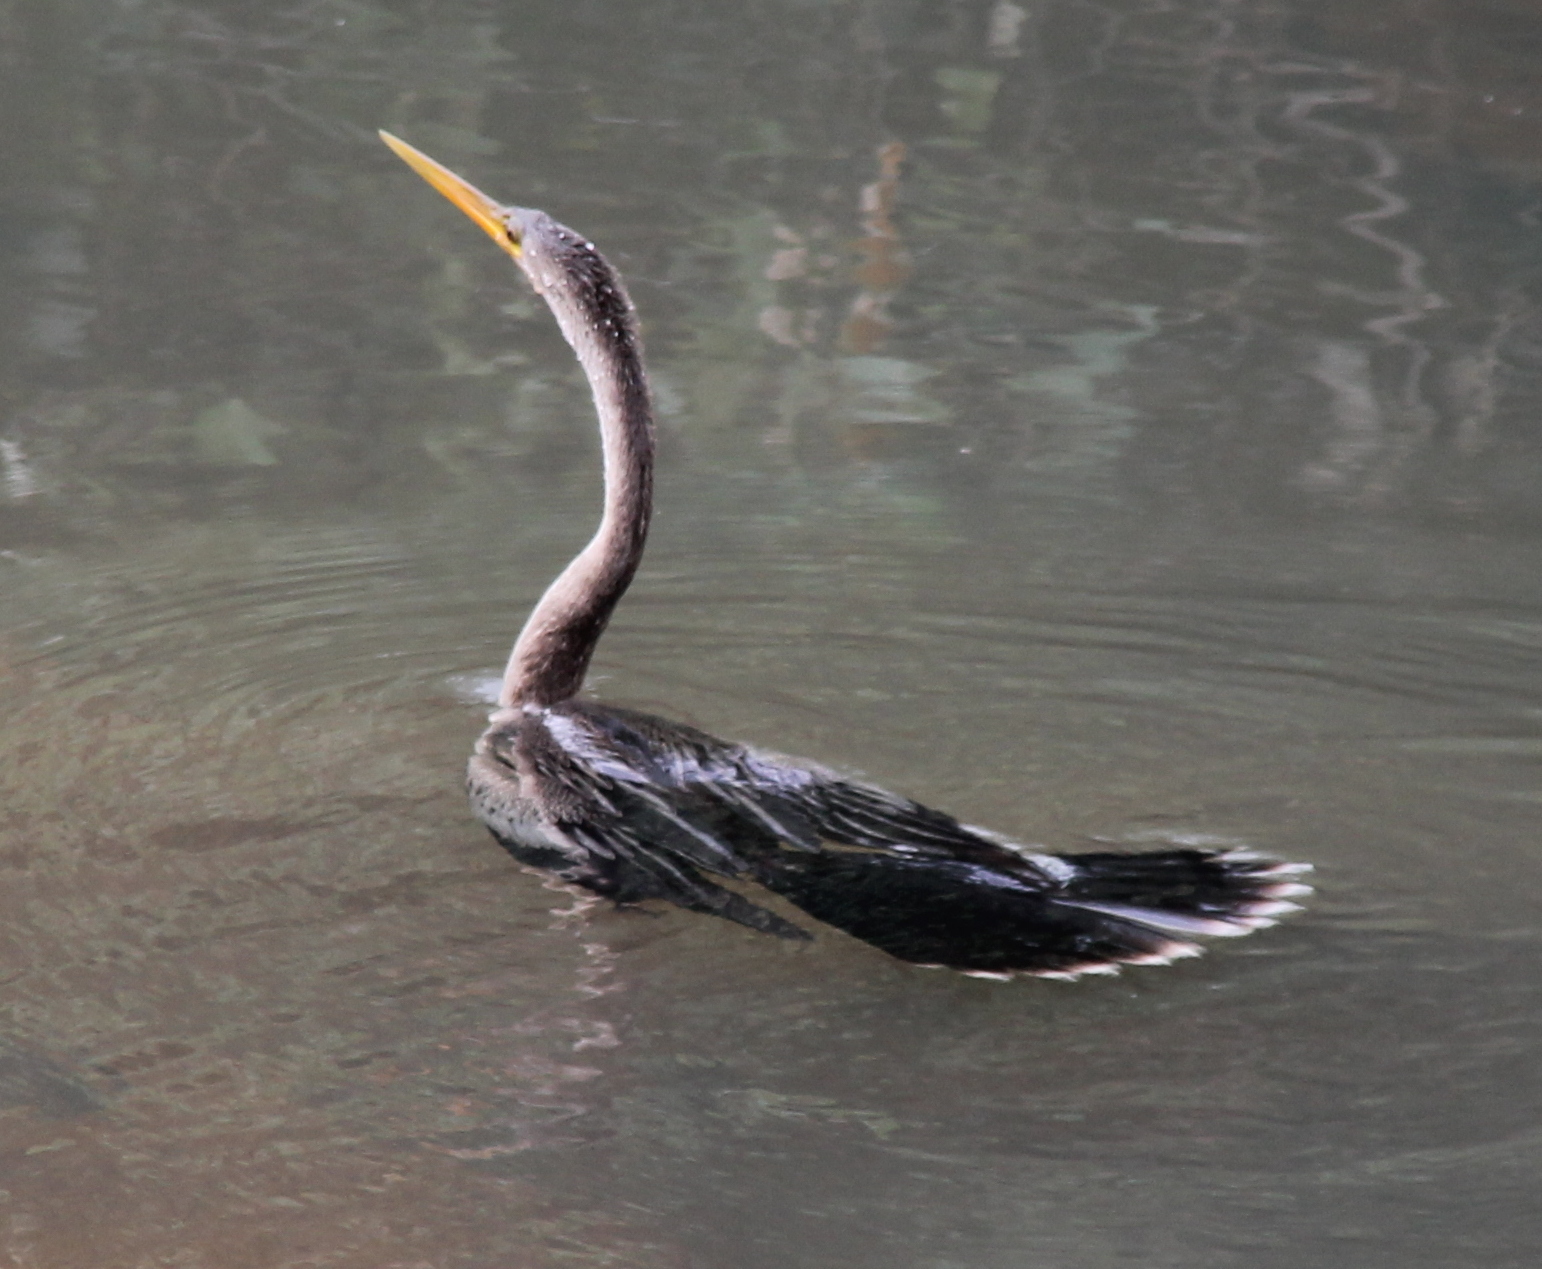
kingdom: Animalia
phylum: Chordata
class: Aves
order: Suliformes
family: Anhingidae
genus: Anhinga
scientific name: Anhinga anhinga
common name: Anhinga
